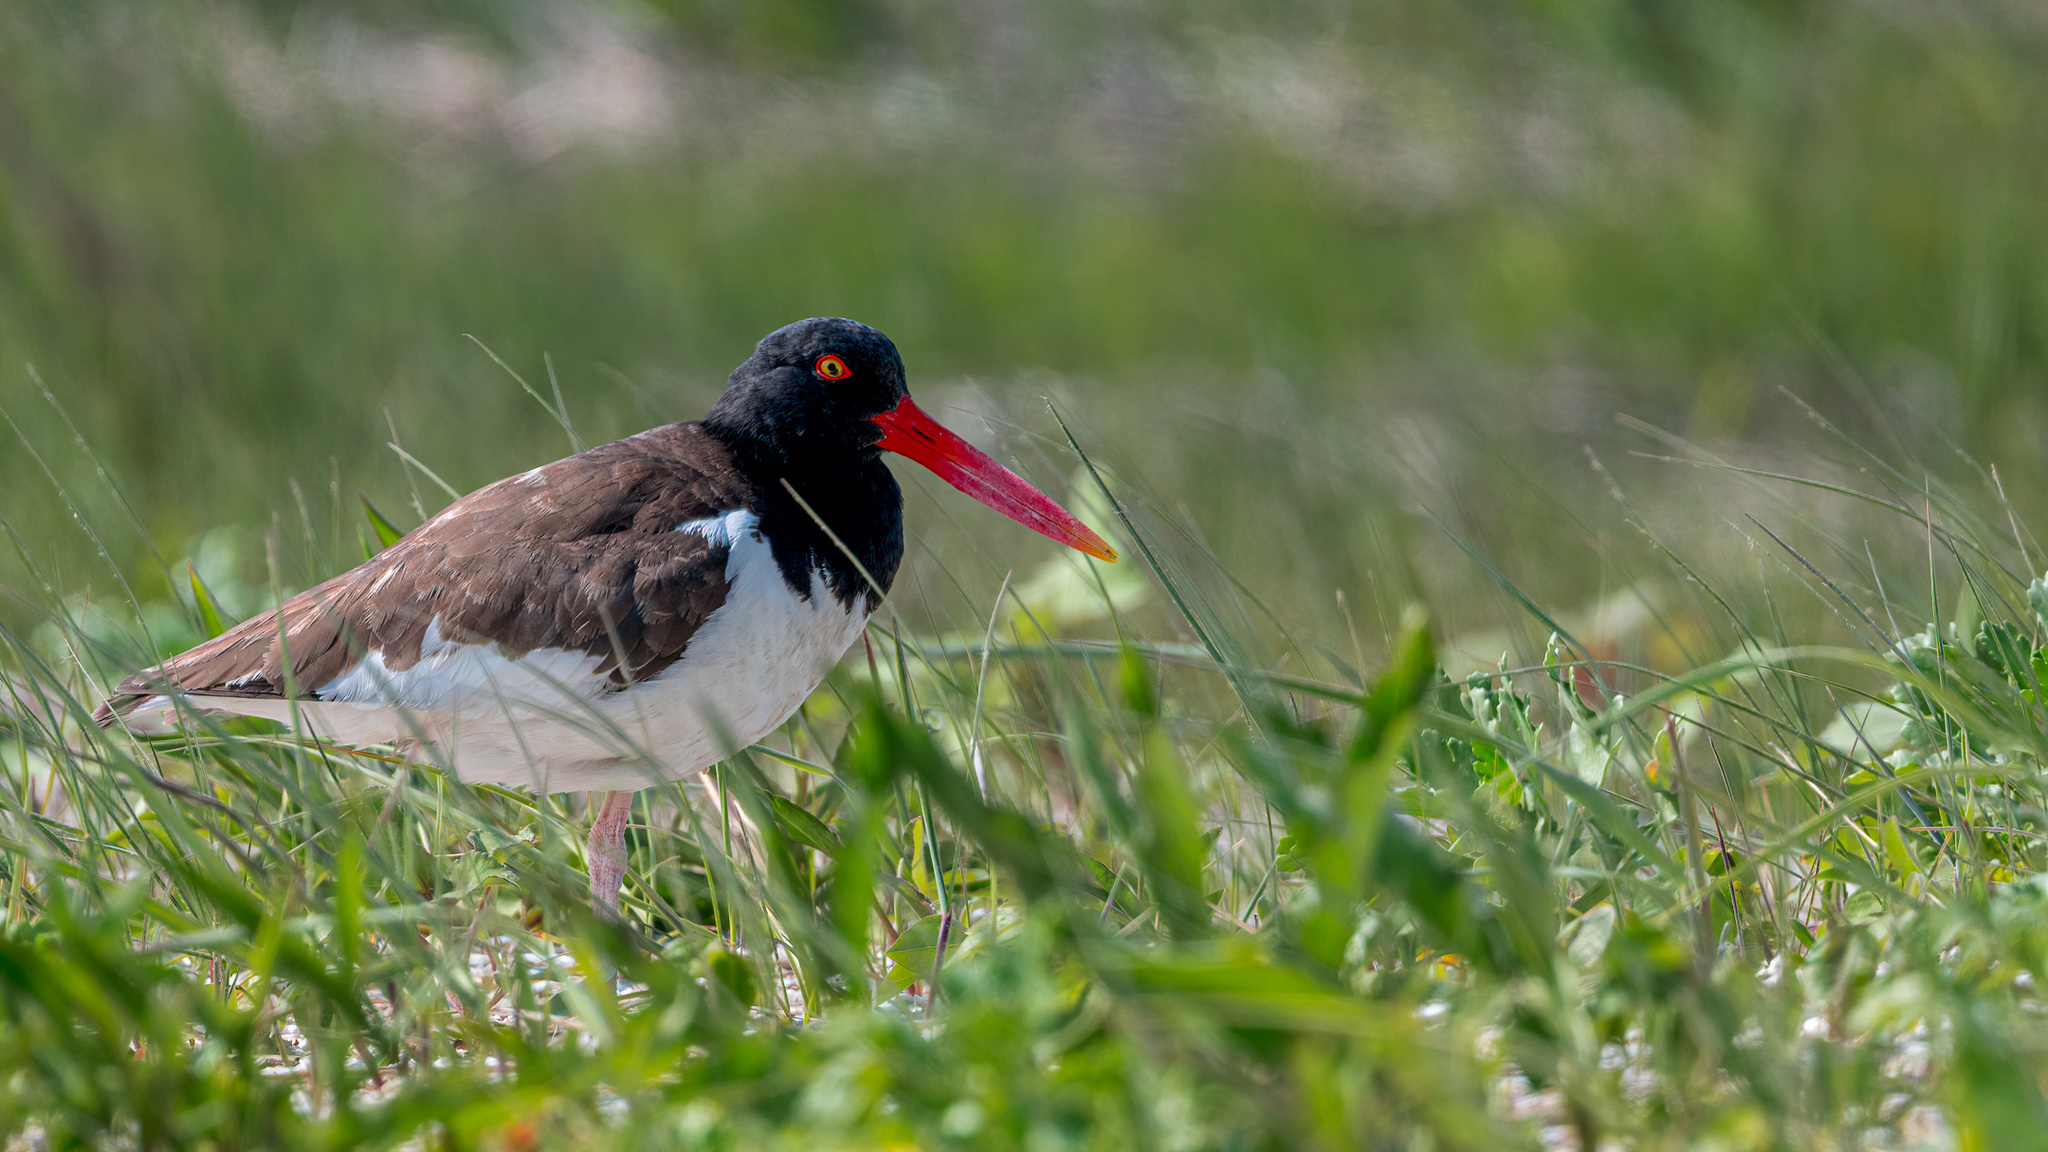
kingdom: Animalia
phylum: Chordata
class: Aves
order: Charadriiformes
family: Haematopodidae
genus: Haematopus
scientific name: Haematopus palliatus
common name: American oystercatcher
